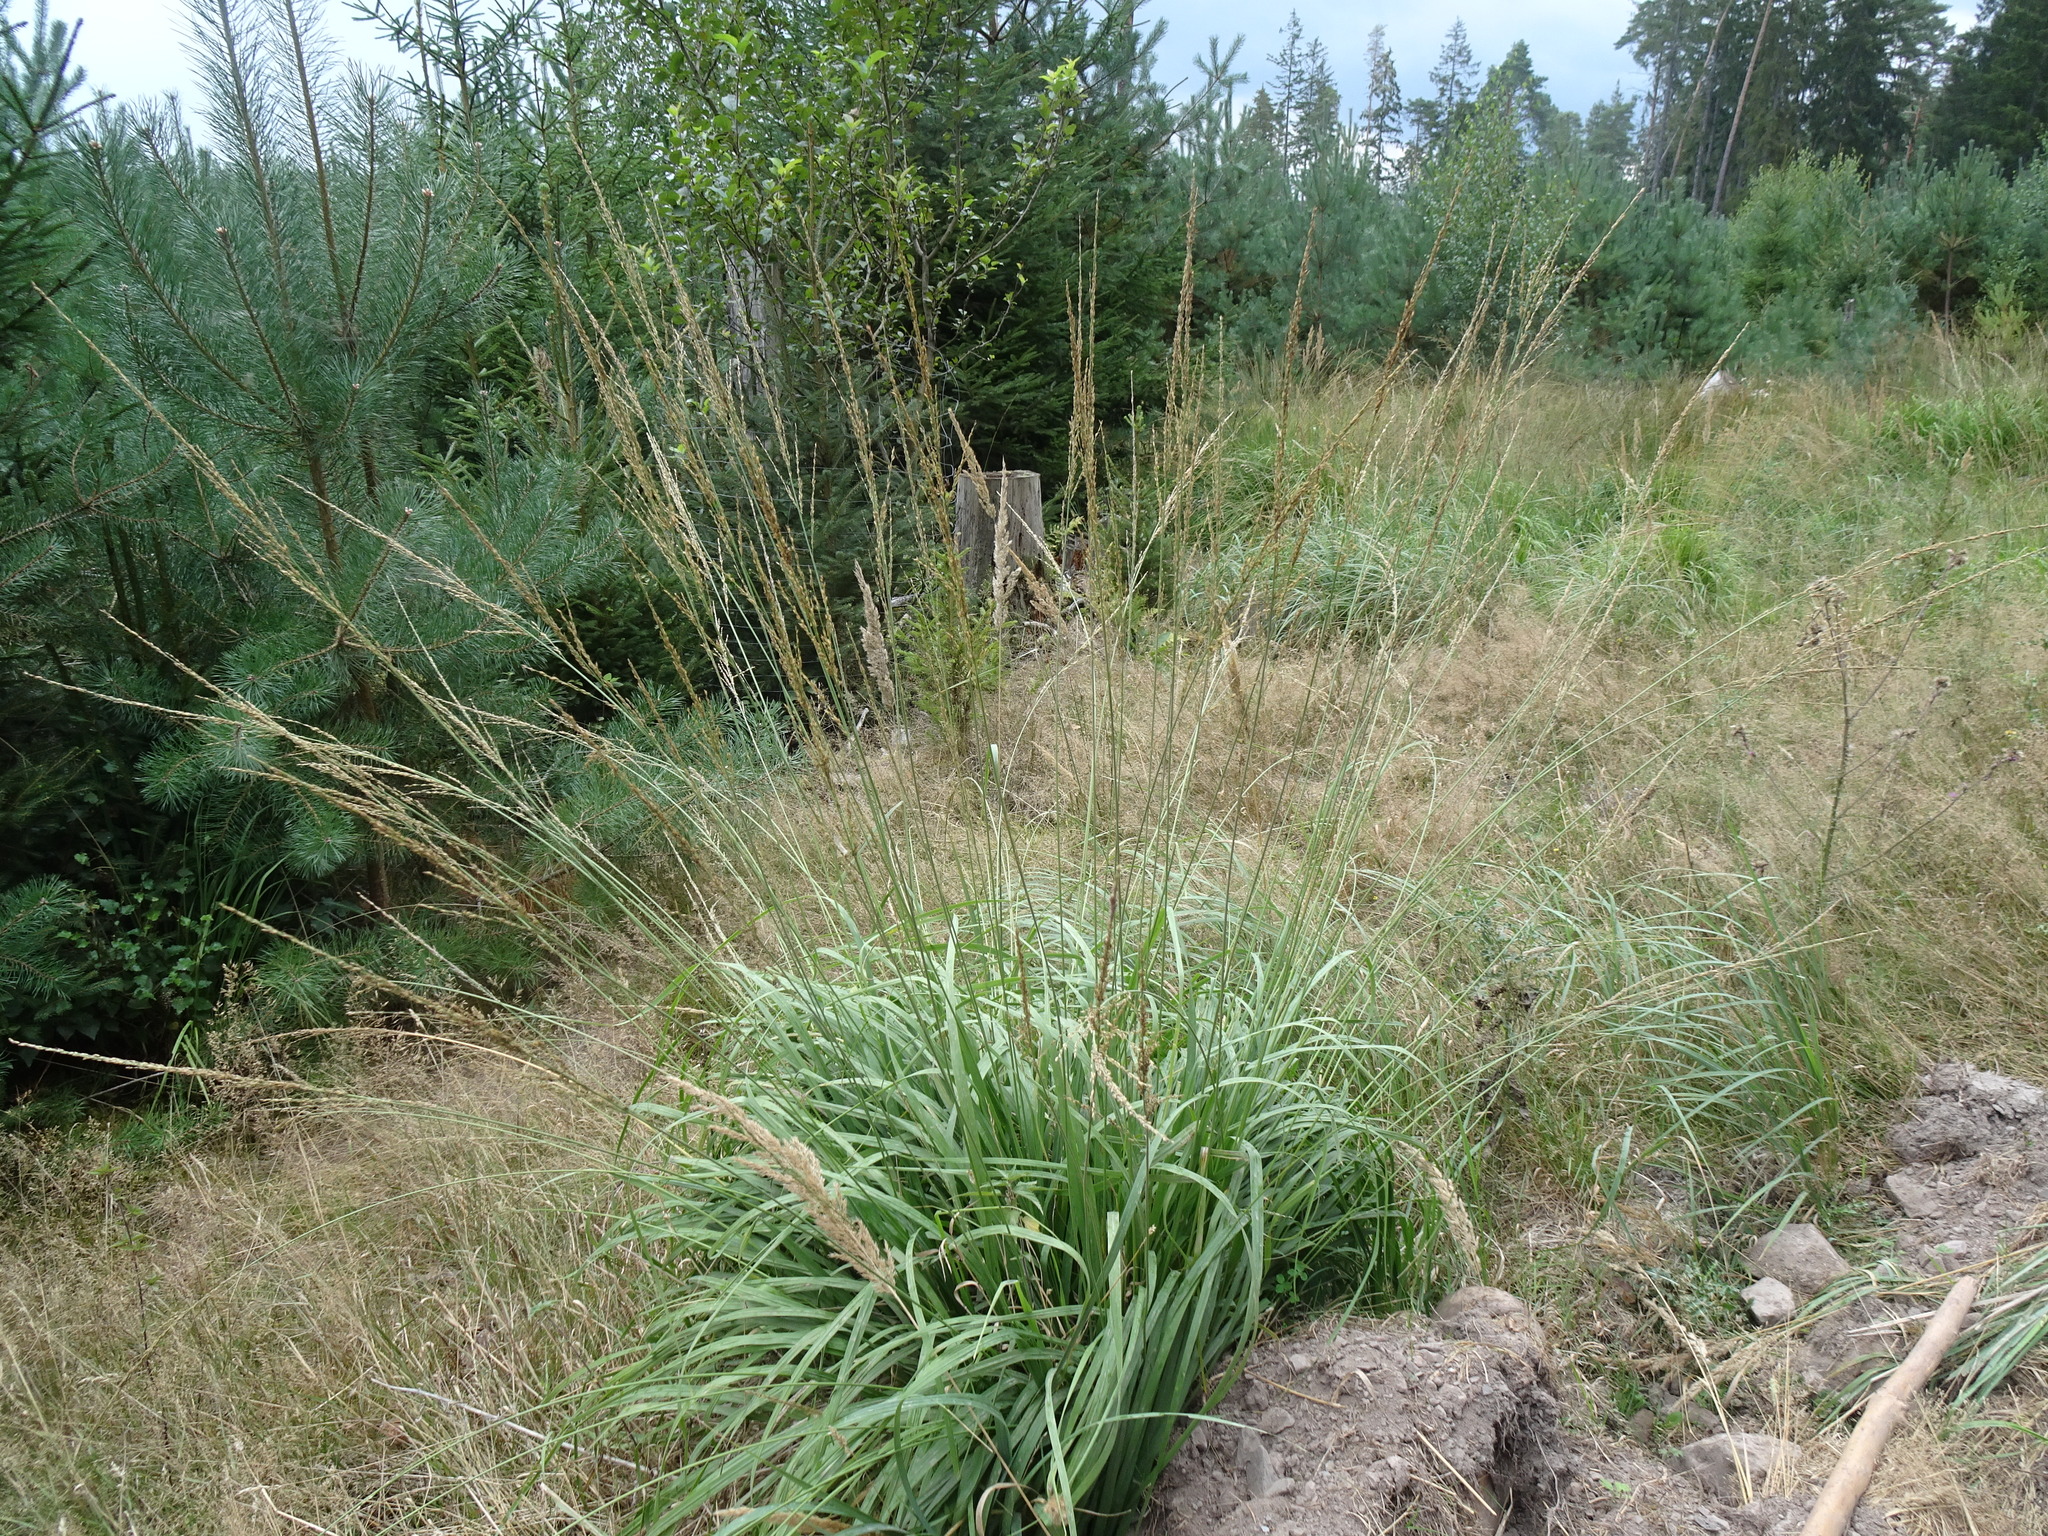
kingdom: Plantae
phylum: Tracheophyta
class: Liliopsida
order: Poales
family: Poaceae
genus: Molinia
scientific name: Molinia caerulea
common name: Purple moor-grass
